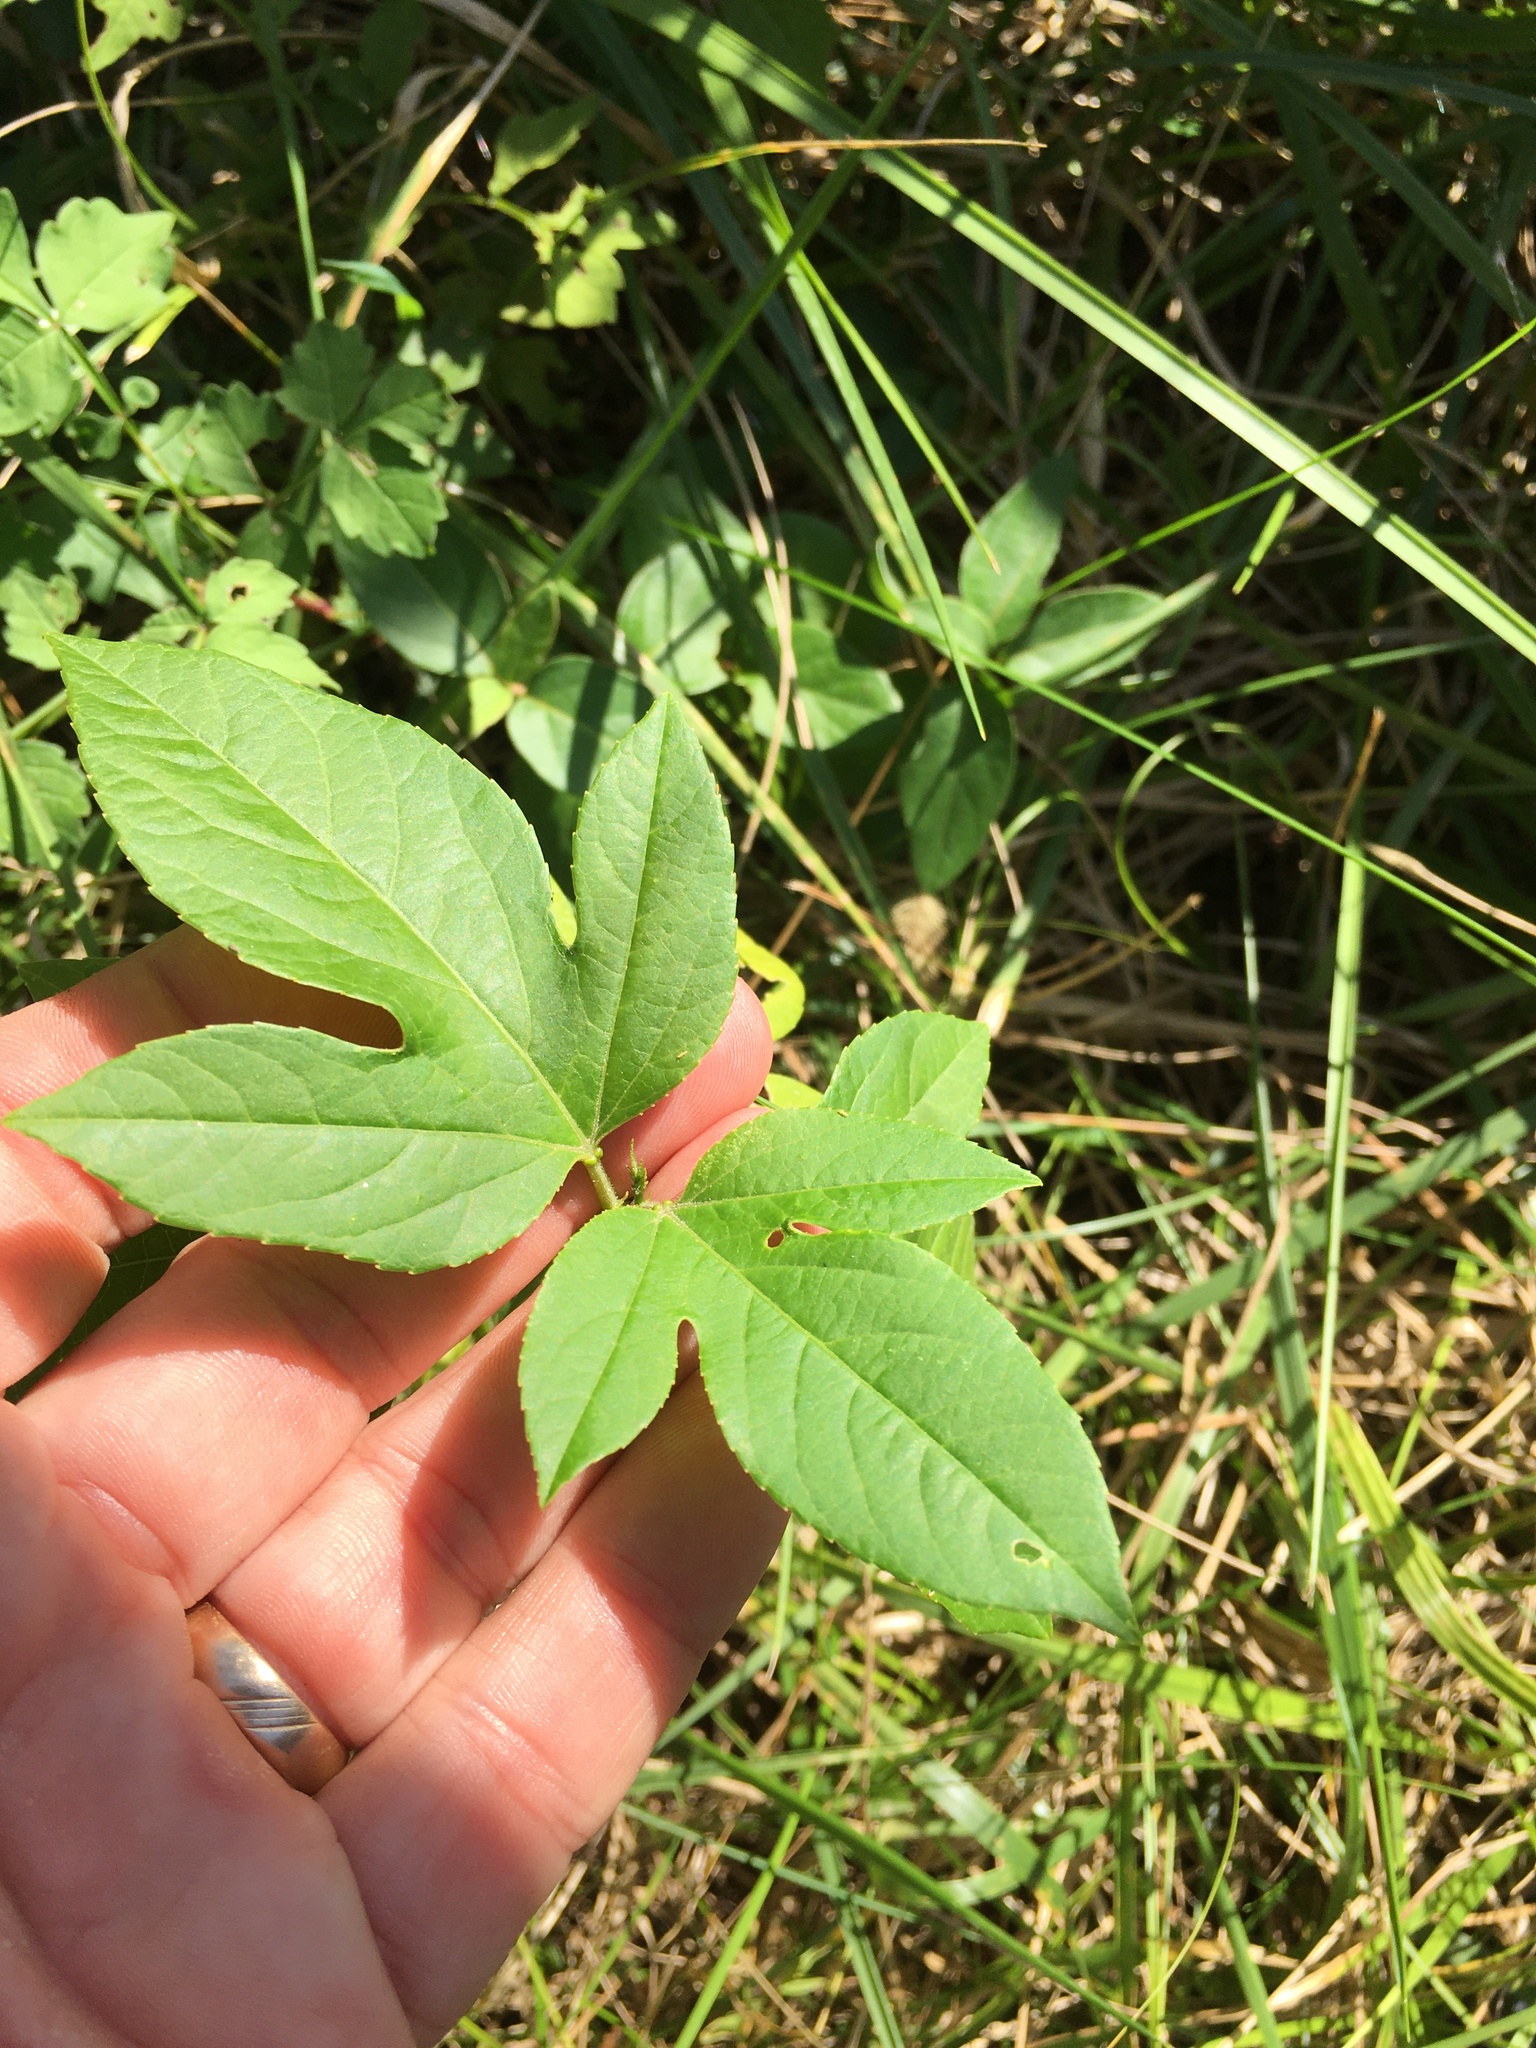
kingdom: Plantae
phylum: Tracheophyta
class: Magnoliopsida
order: Malpighiales
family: Passifloraceae
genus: Passiflora
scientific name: Passiflora incarnata
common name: Apricot-vine
